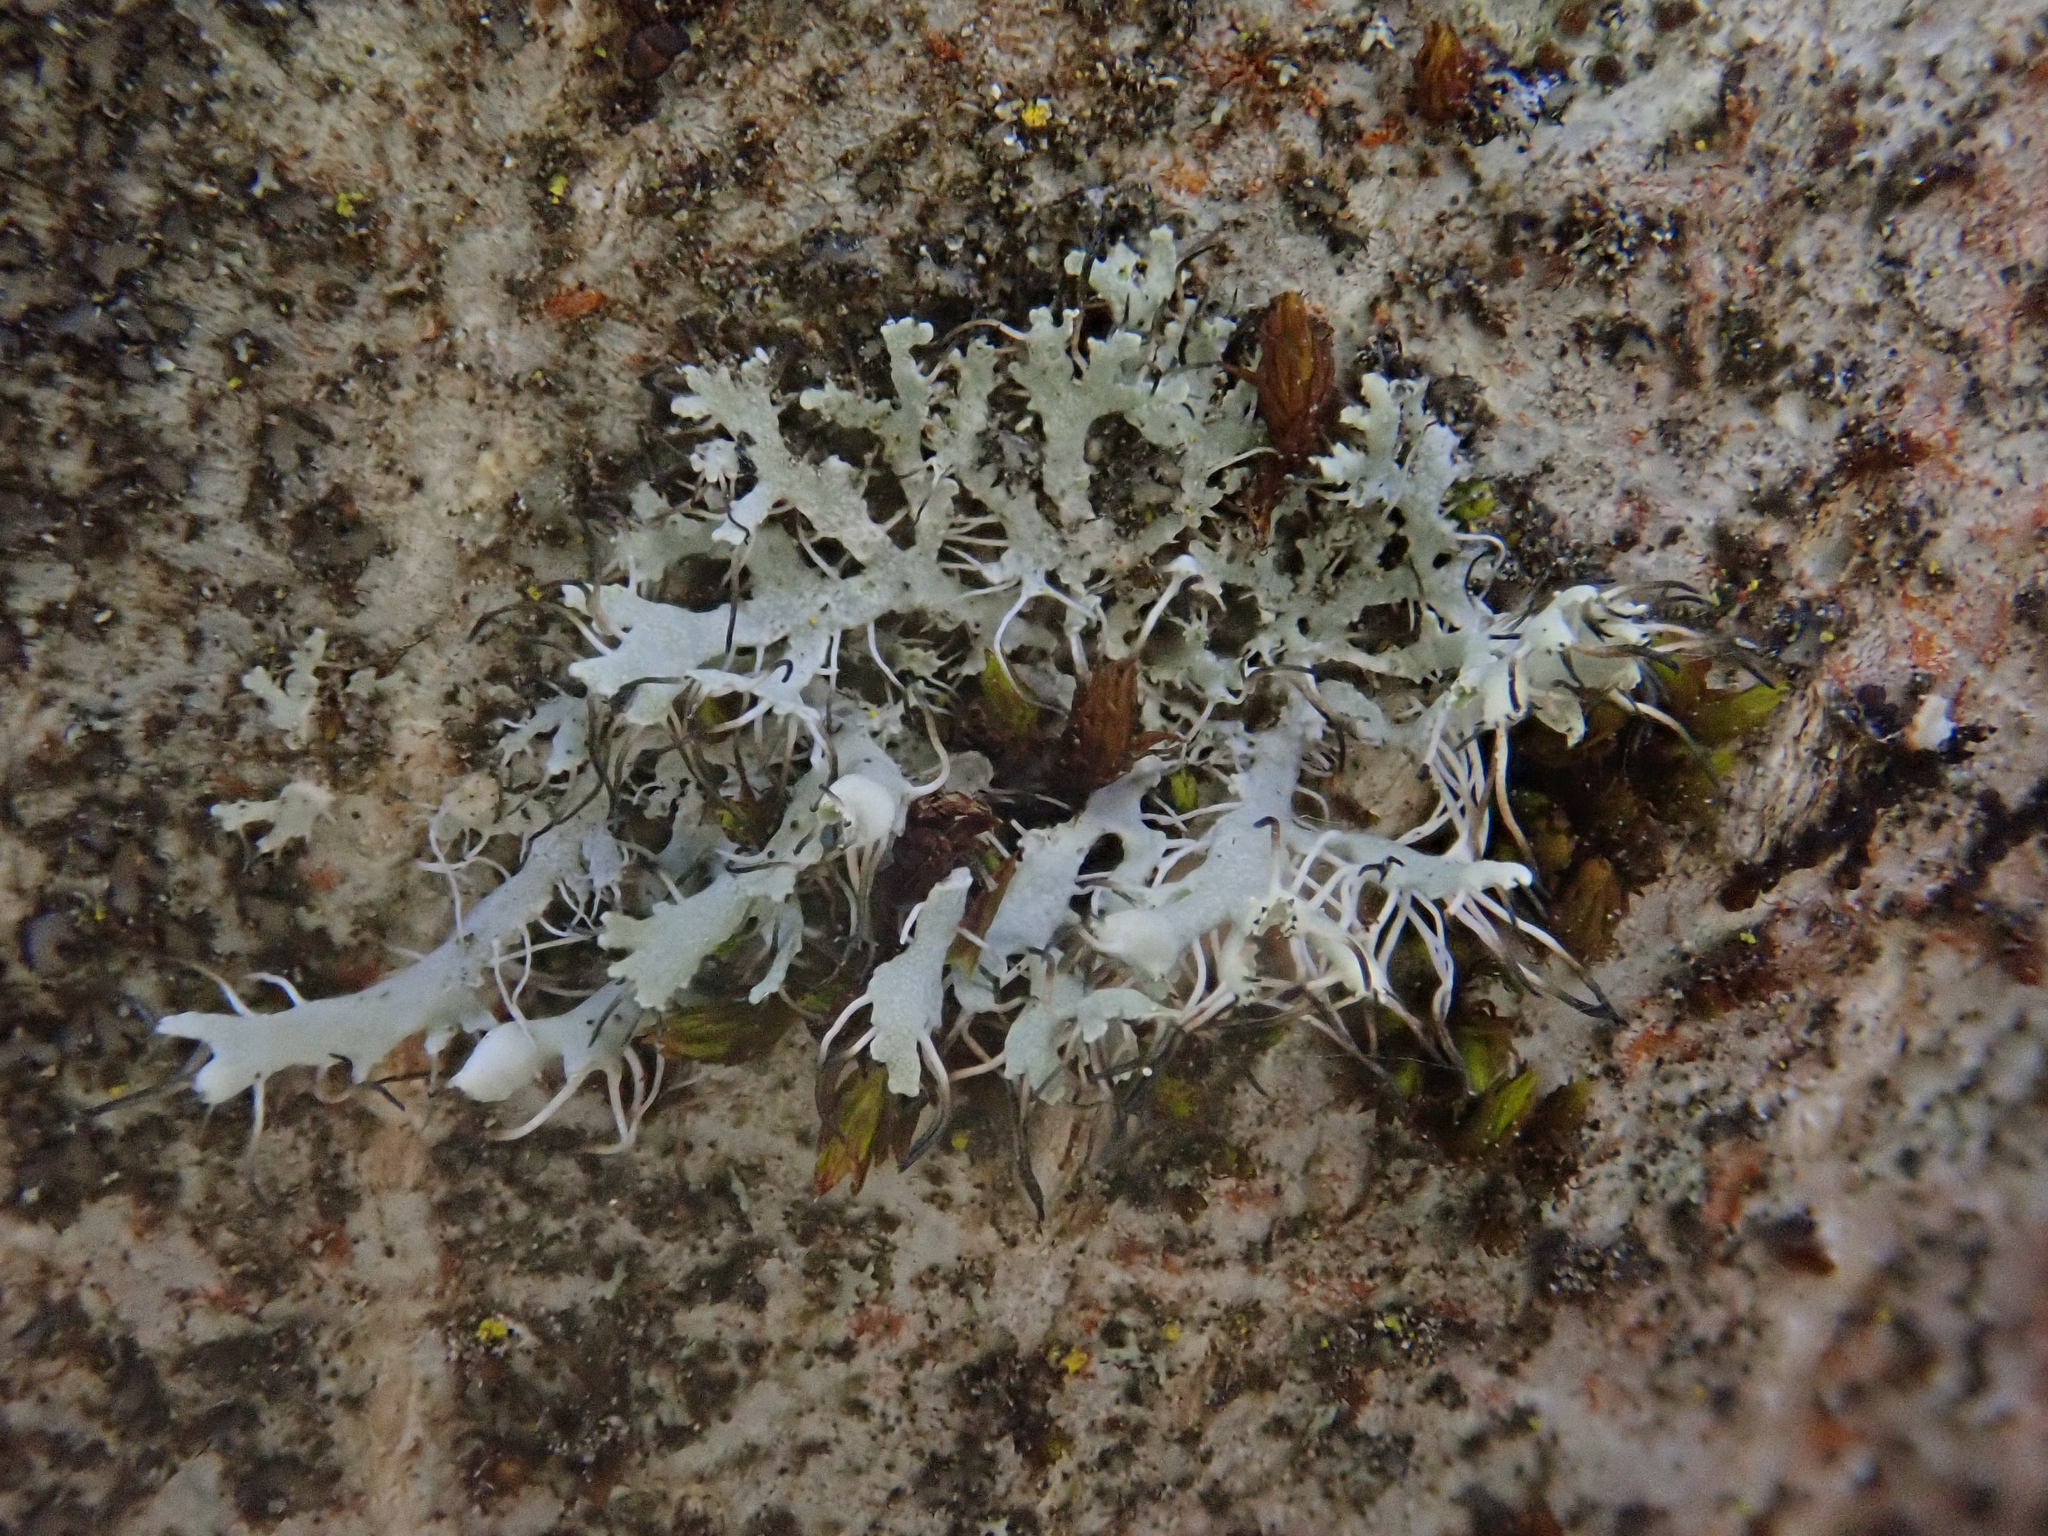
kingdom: Fungi
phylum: Ascomycota
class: Lecanoromycetes
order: Caliciales
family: Physciaceae
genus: Physcia
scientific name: Physcia adscendens
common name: Hooded rosette lichen
